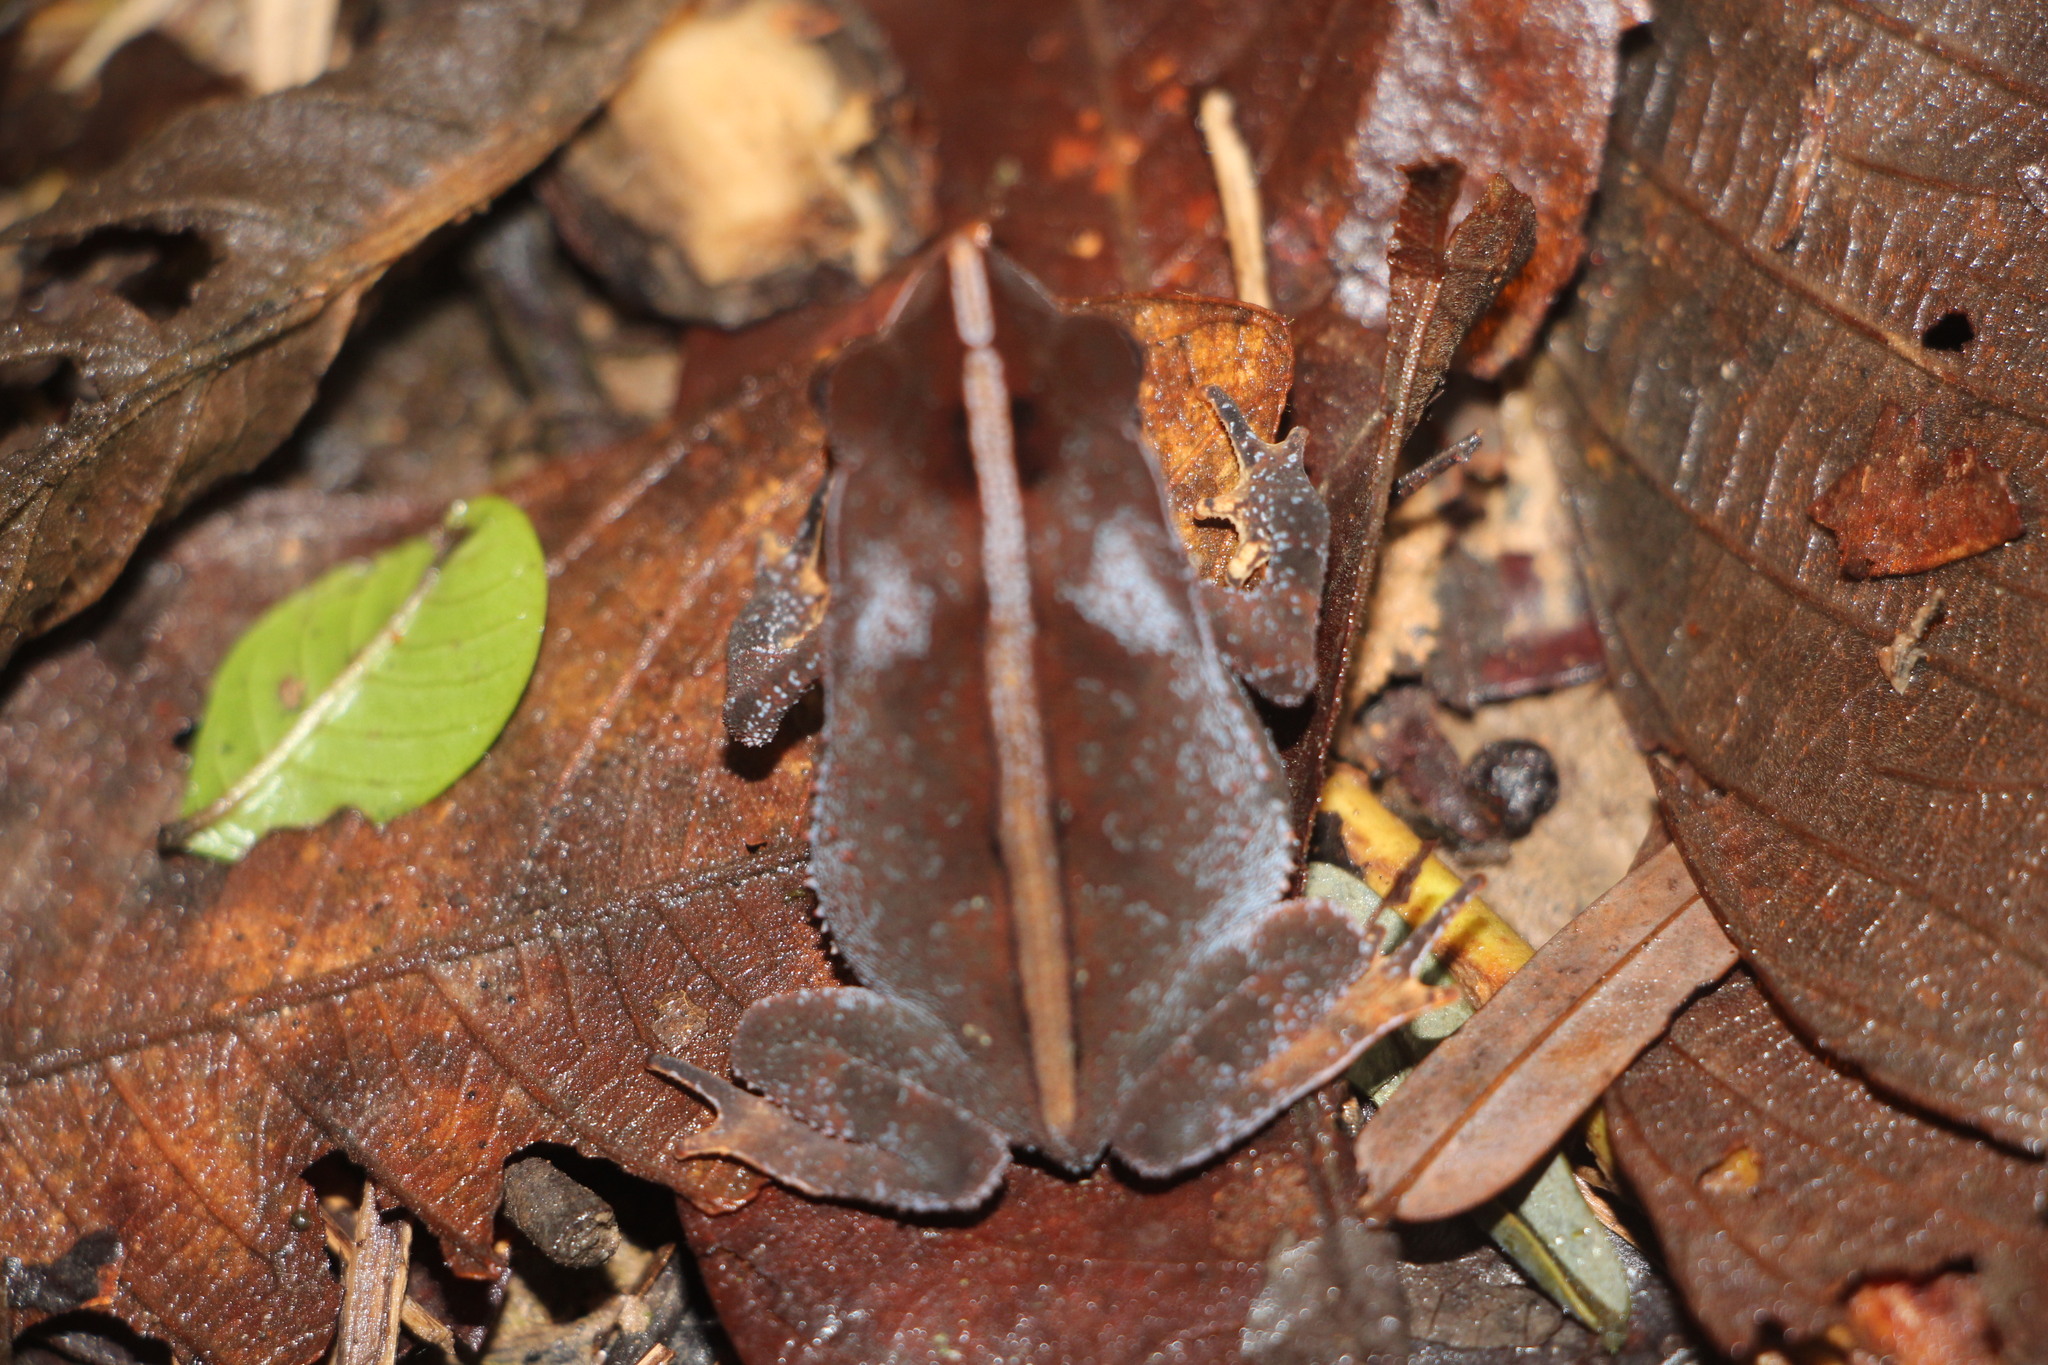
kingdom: Animalia
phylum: Chordata
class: Amphibia
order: Anura
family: Bufonidae
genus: Rhinella
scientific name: Rhinella margaritifera
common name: Mitred toad
